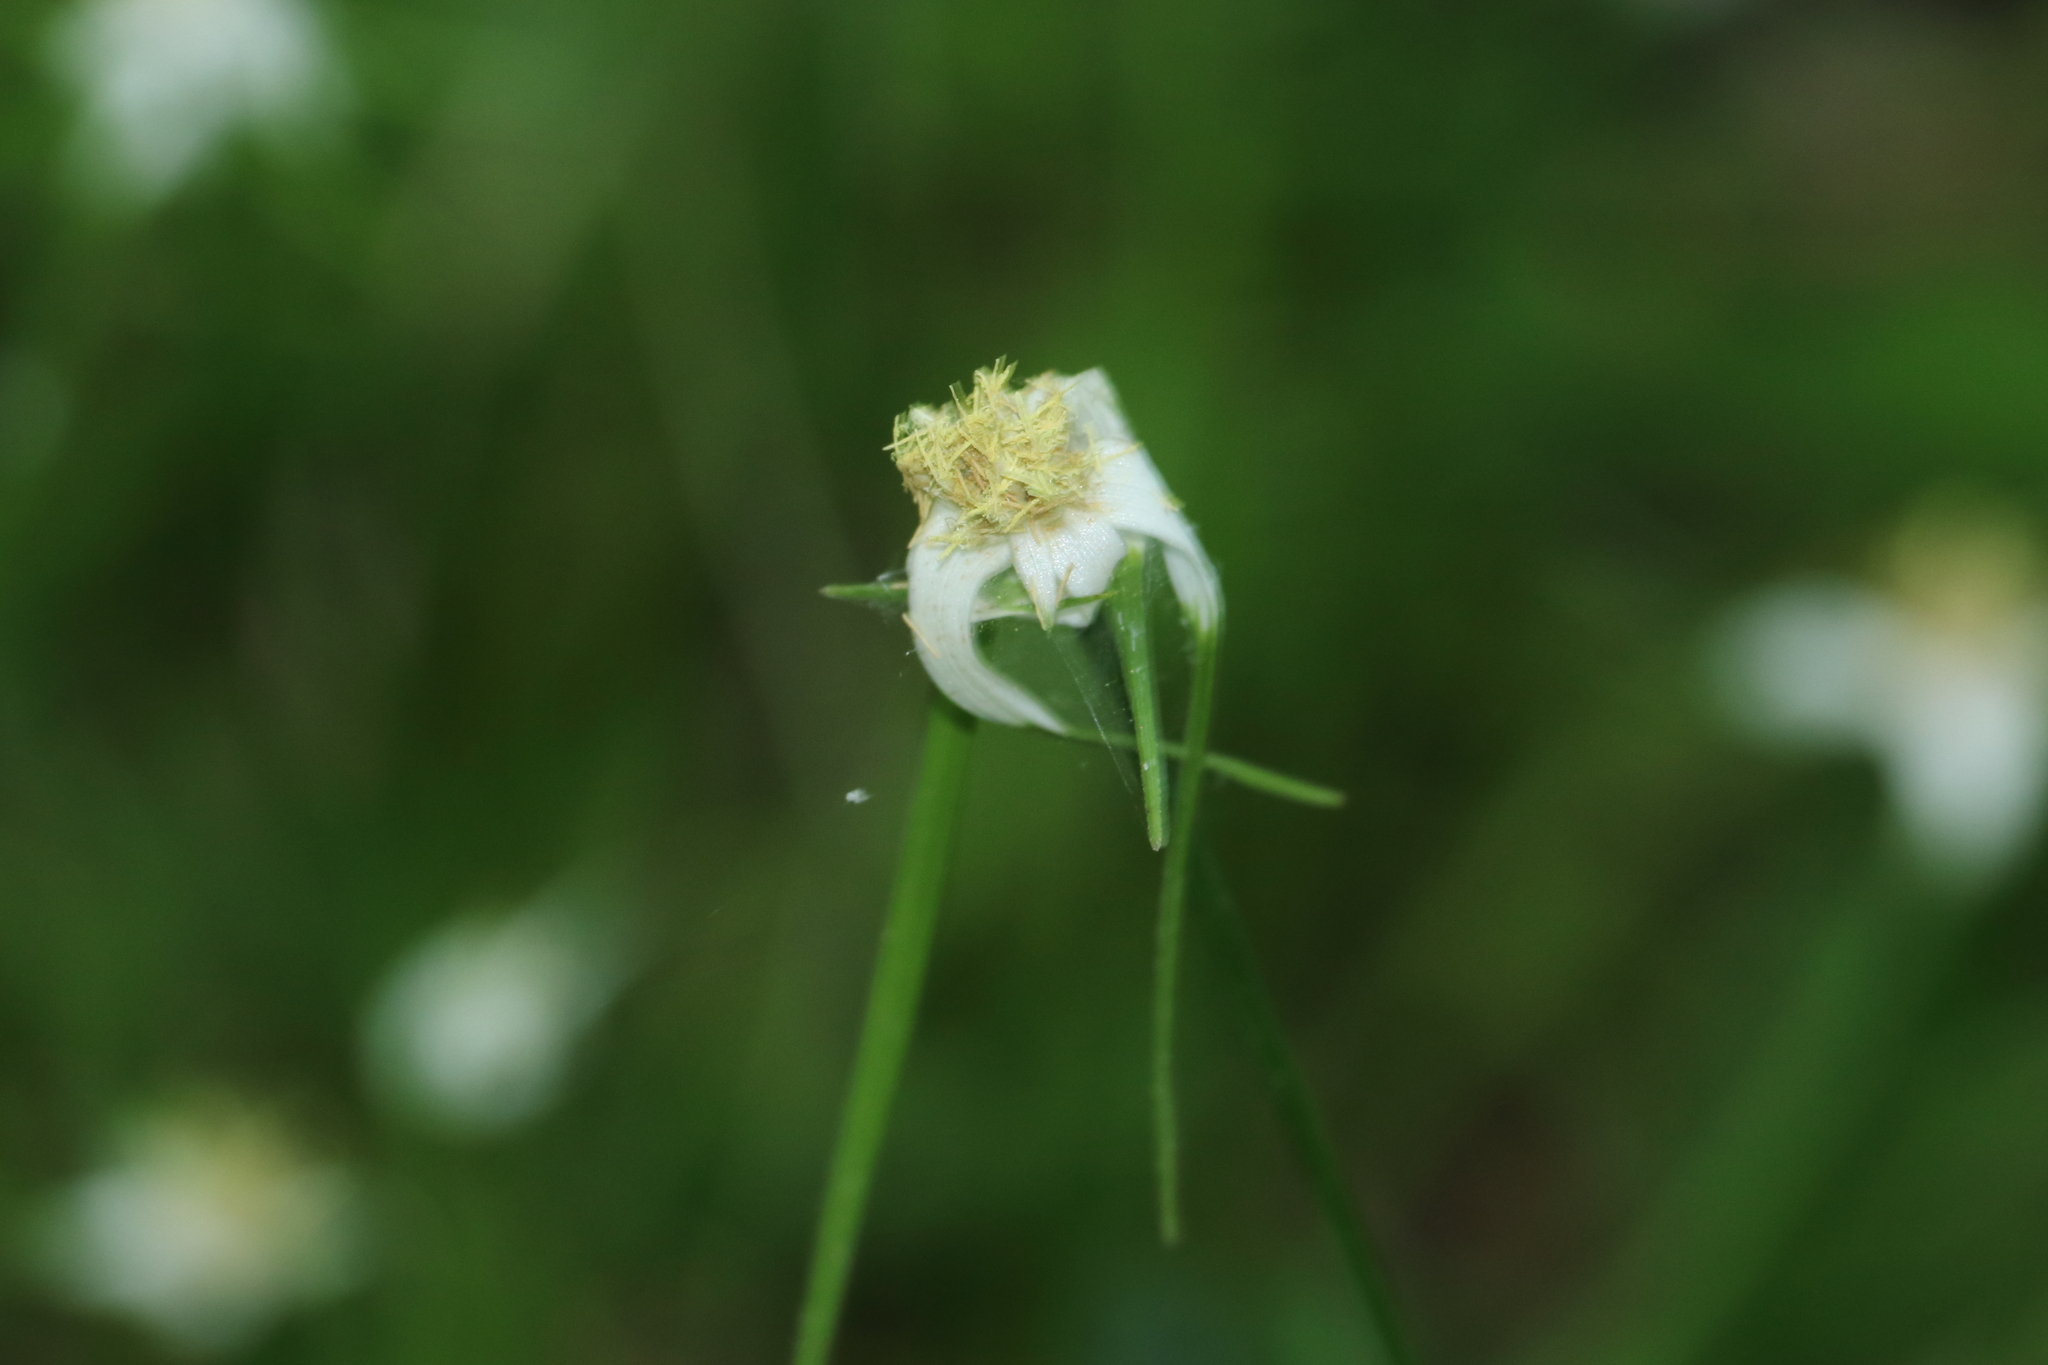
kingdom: Plantae
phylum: Tracheophyta
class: Liliopsida
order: Poales
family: Cyperaceae
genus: Rhynchospora
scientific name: Rhynchospora colorata
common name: Star sedge
